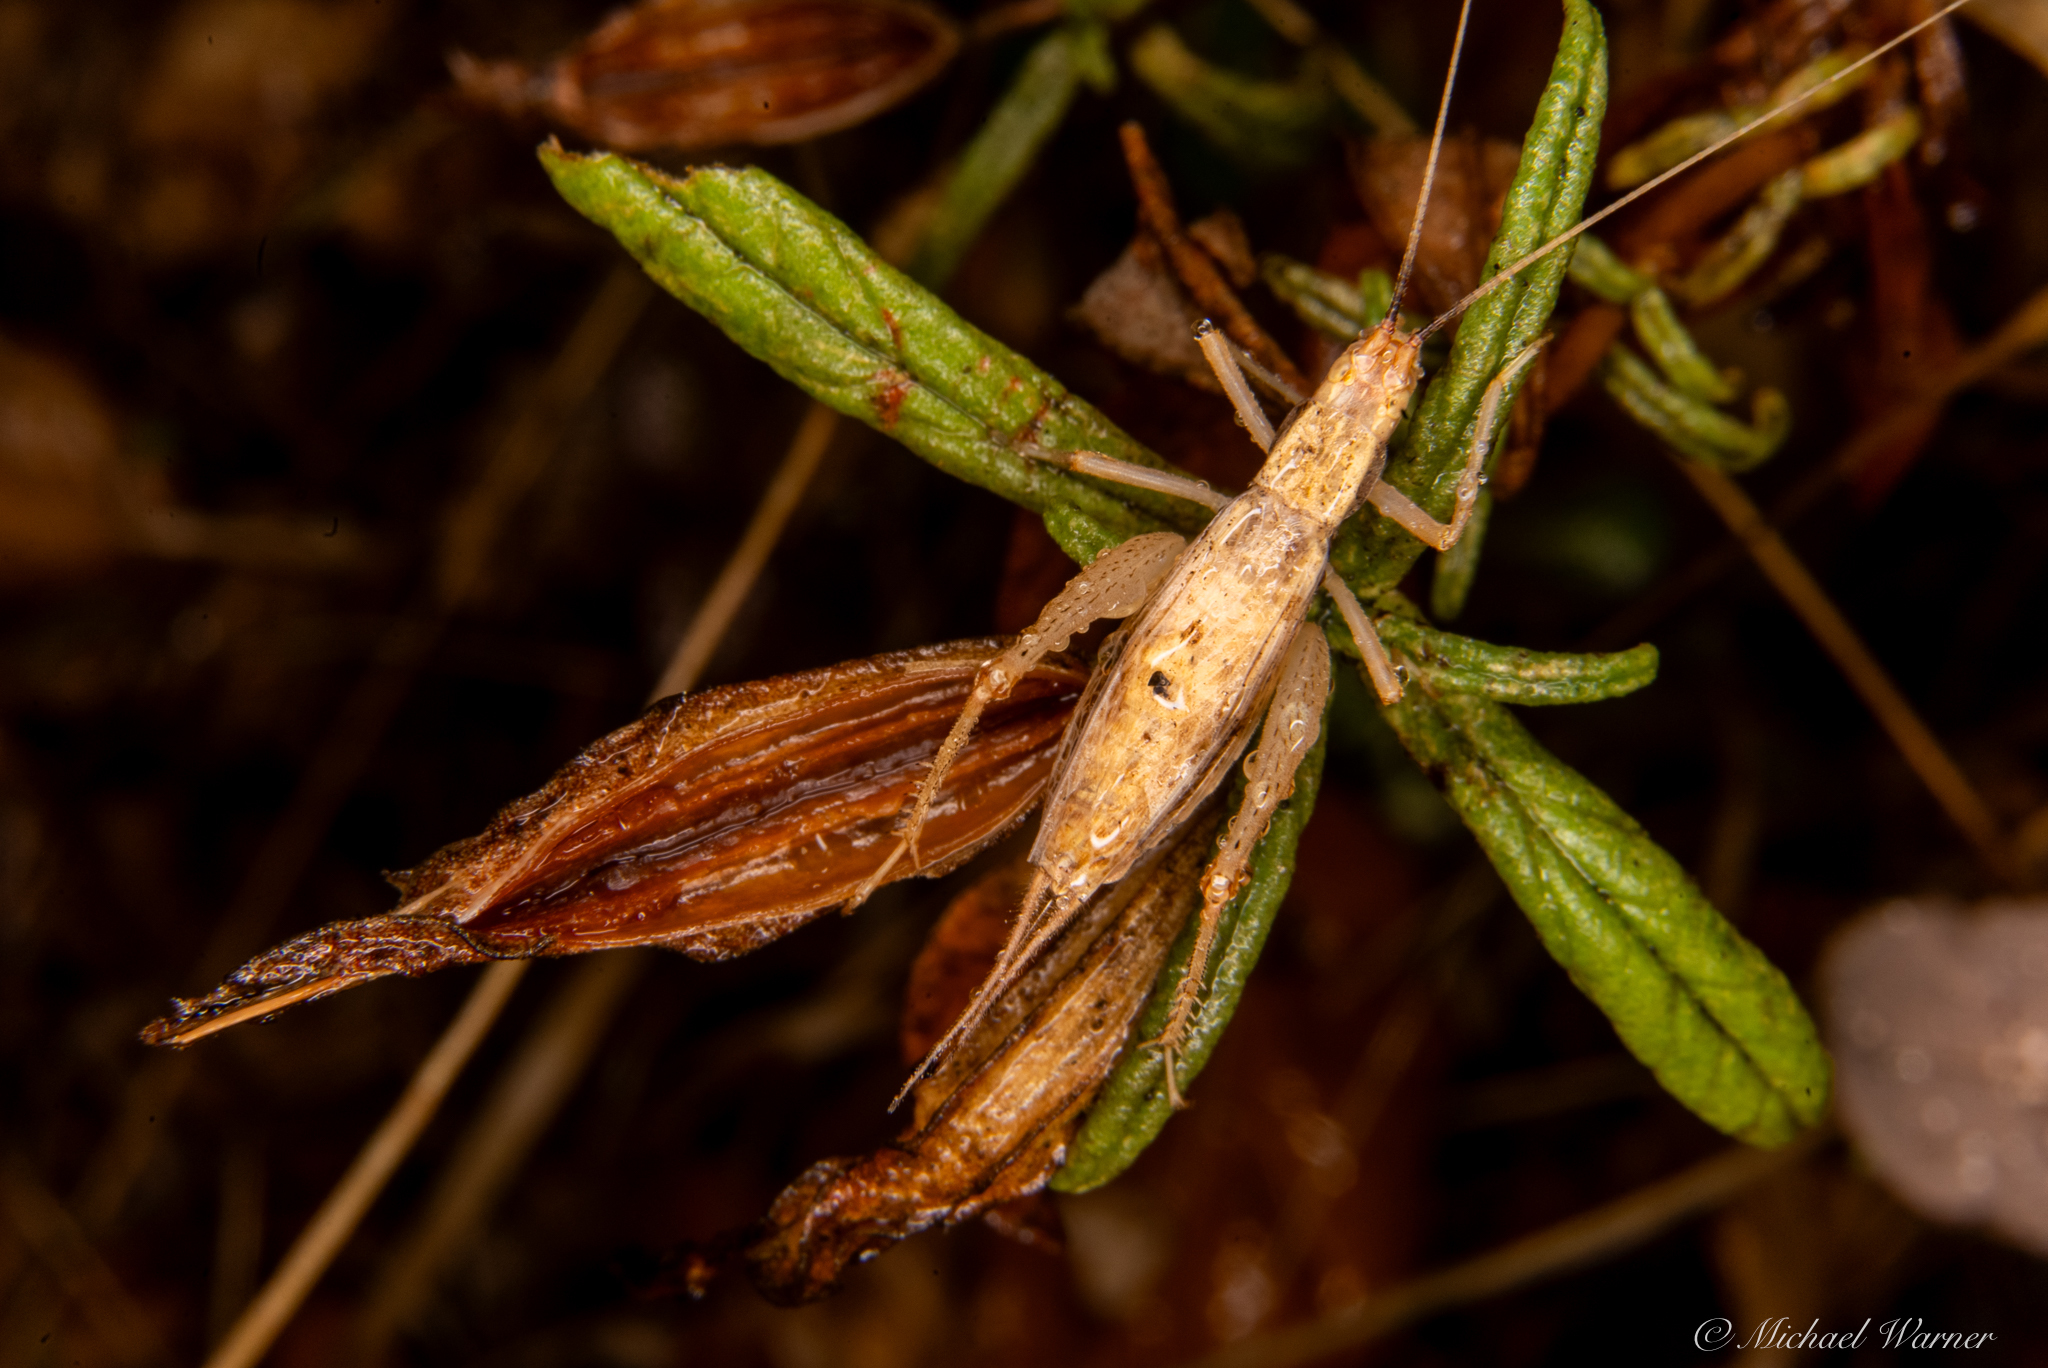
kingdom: Animalia
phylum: Arthropoda
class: Insecta
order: Orthoptera
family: Gryllidae
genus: Oecanthus
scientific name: Oecanthus californicus
